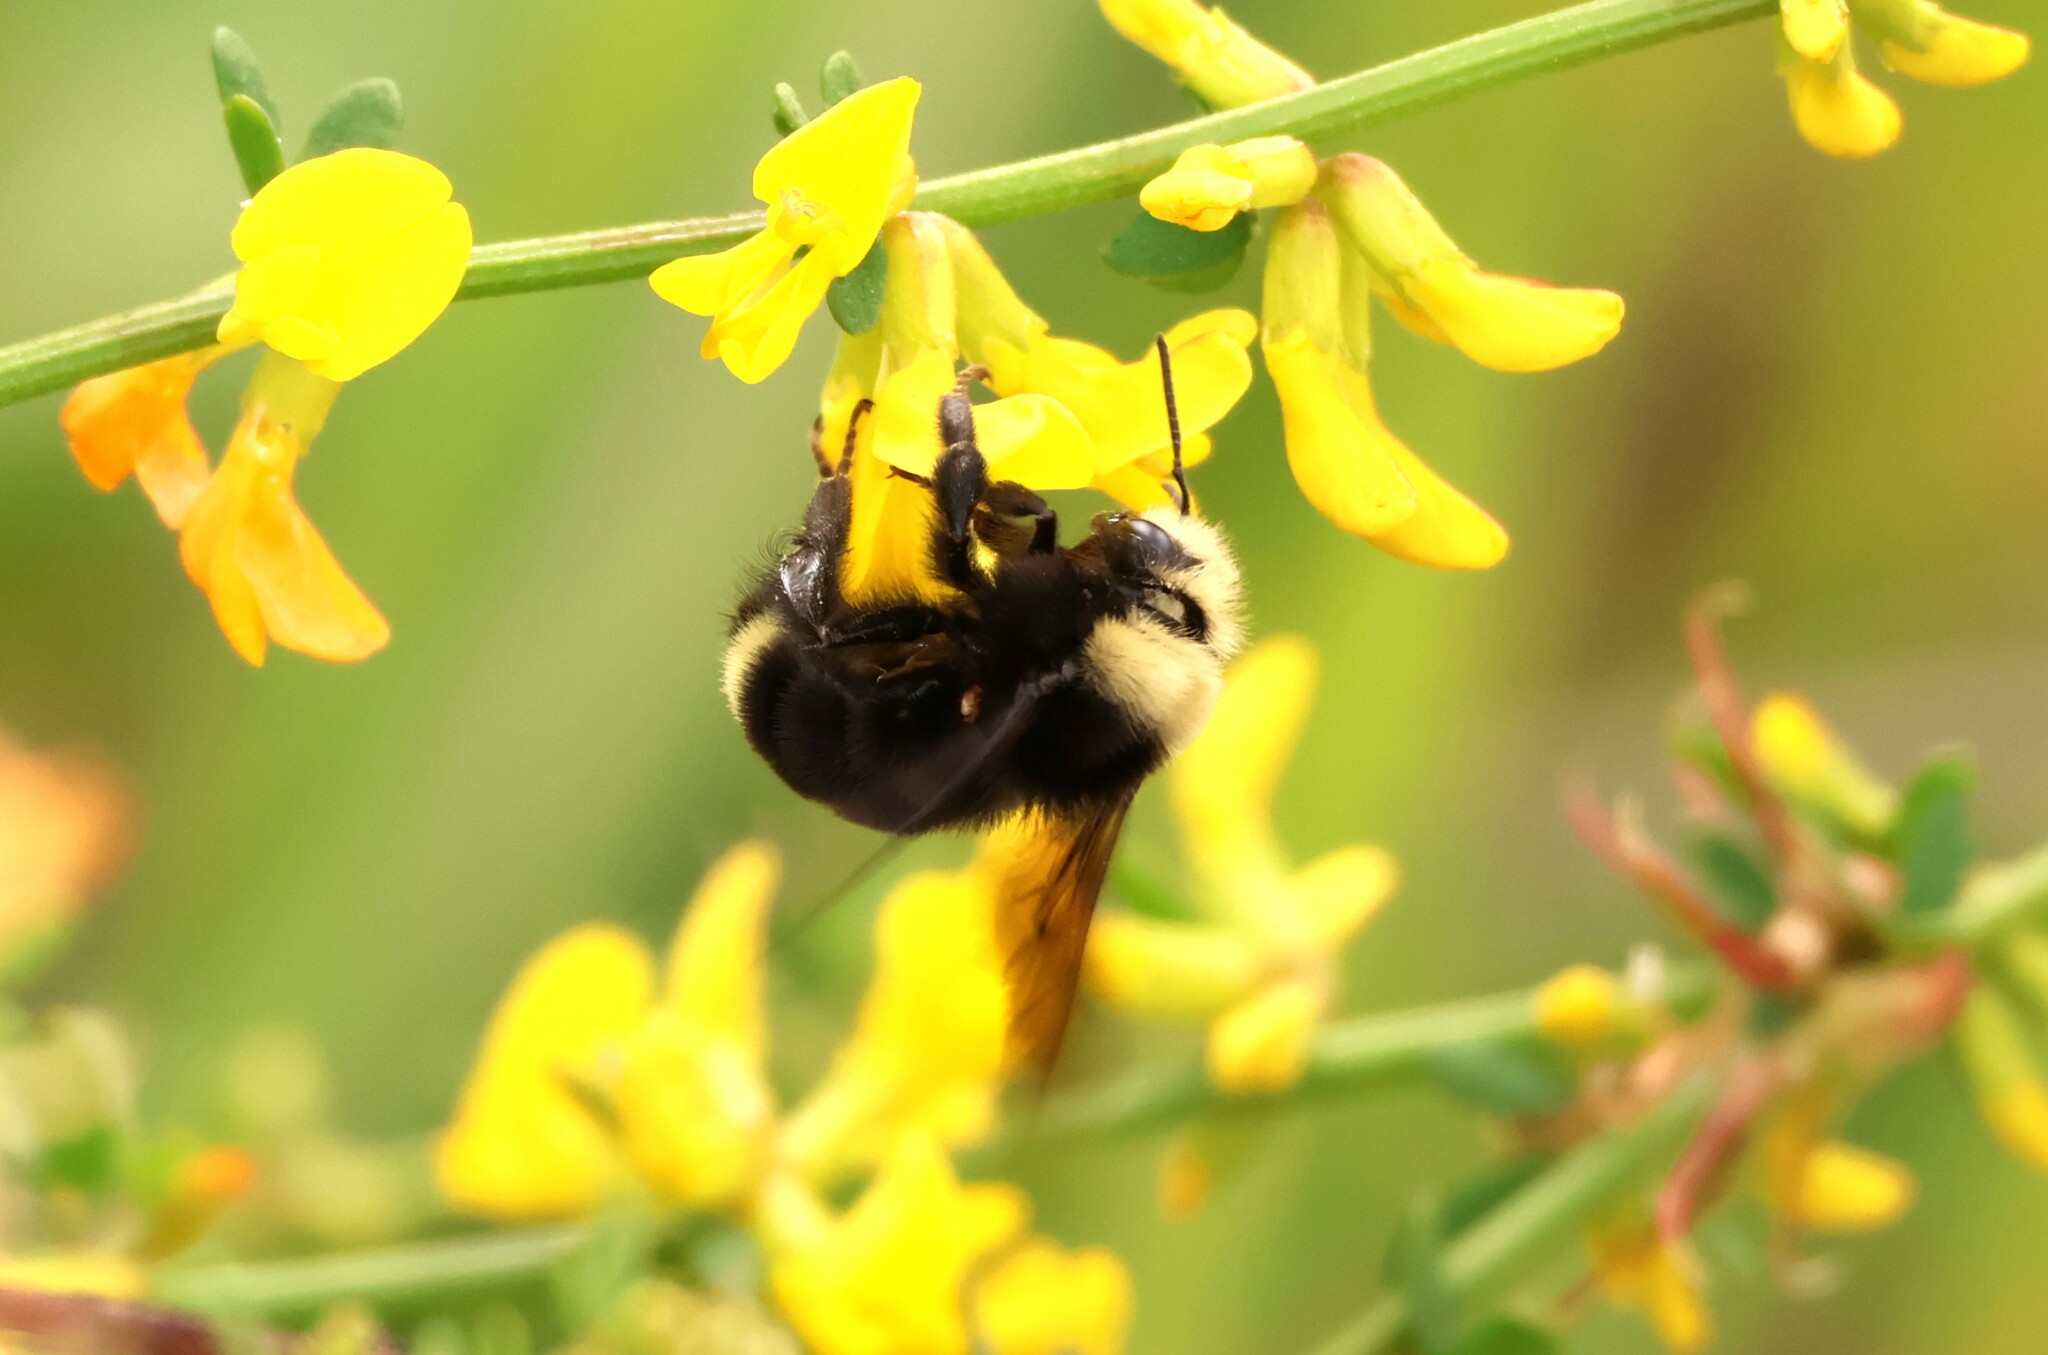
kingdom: Animalia
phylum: Arthropoda
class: Insecta
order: Hymenoptera
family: Apidae
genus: Bombus
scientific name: Bombus vosnesenskii
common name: Vosnesensky bumble bee
